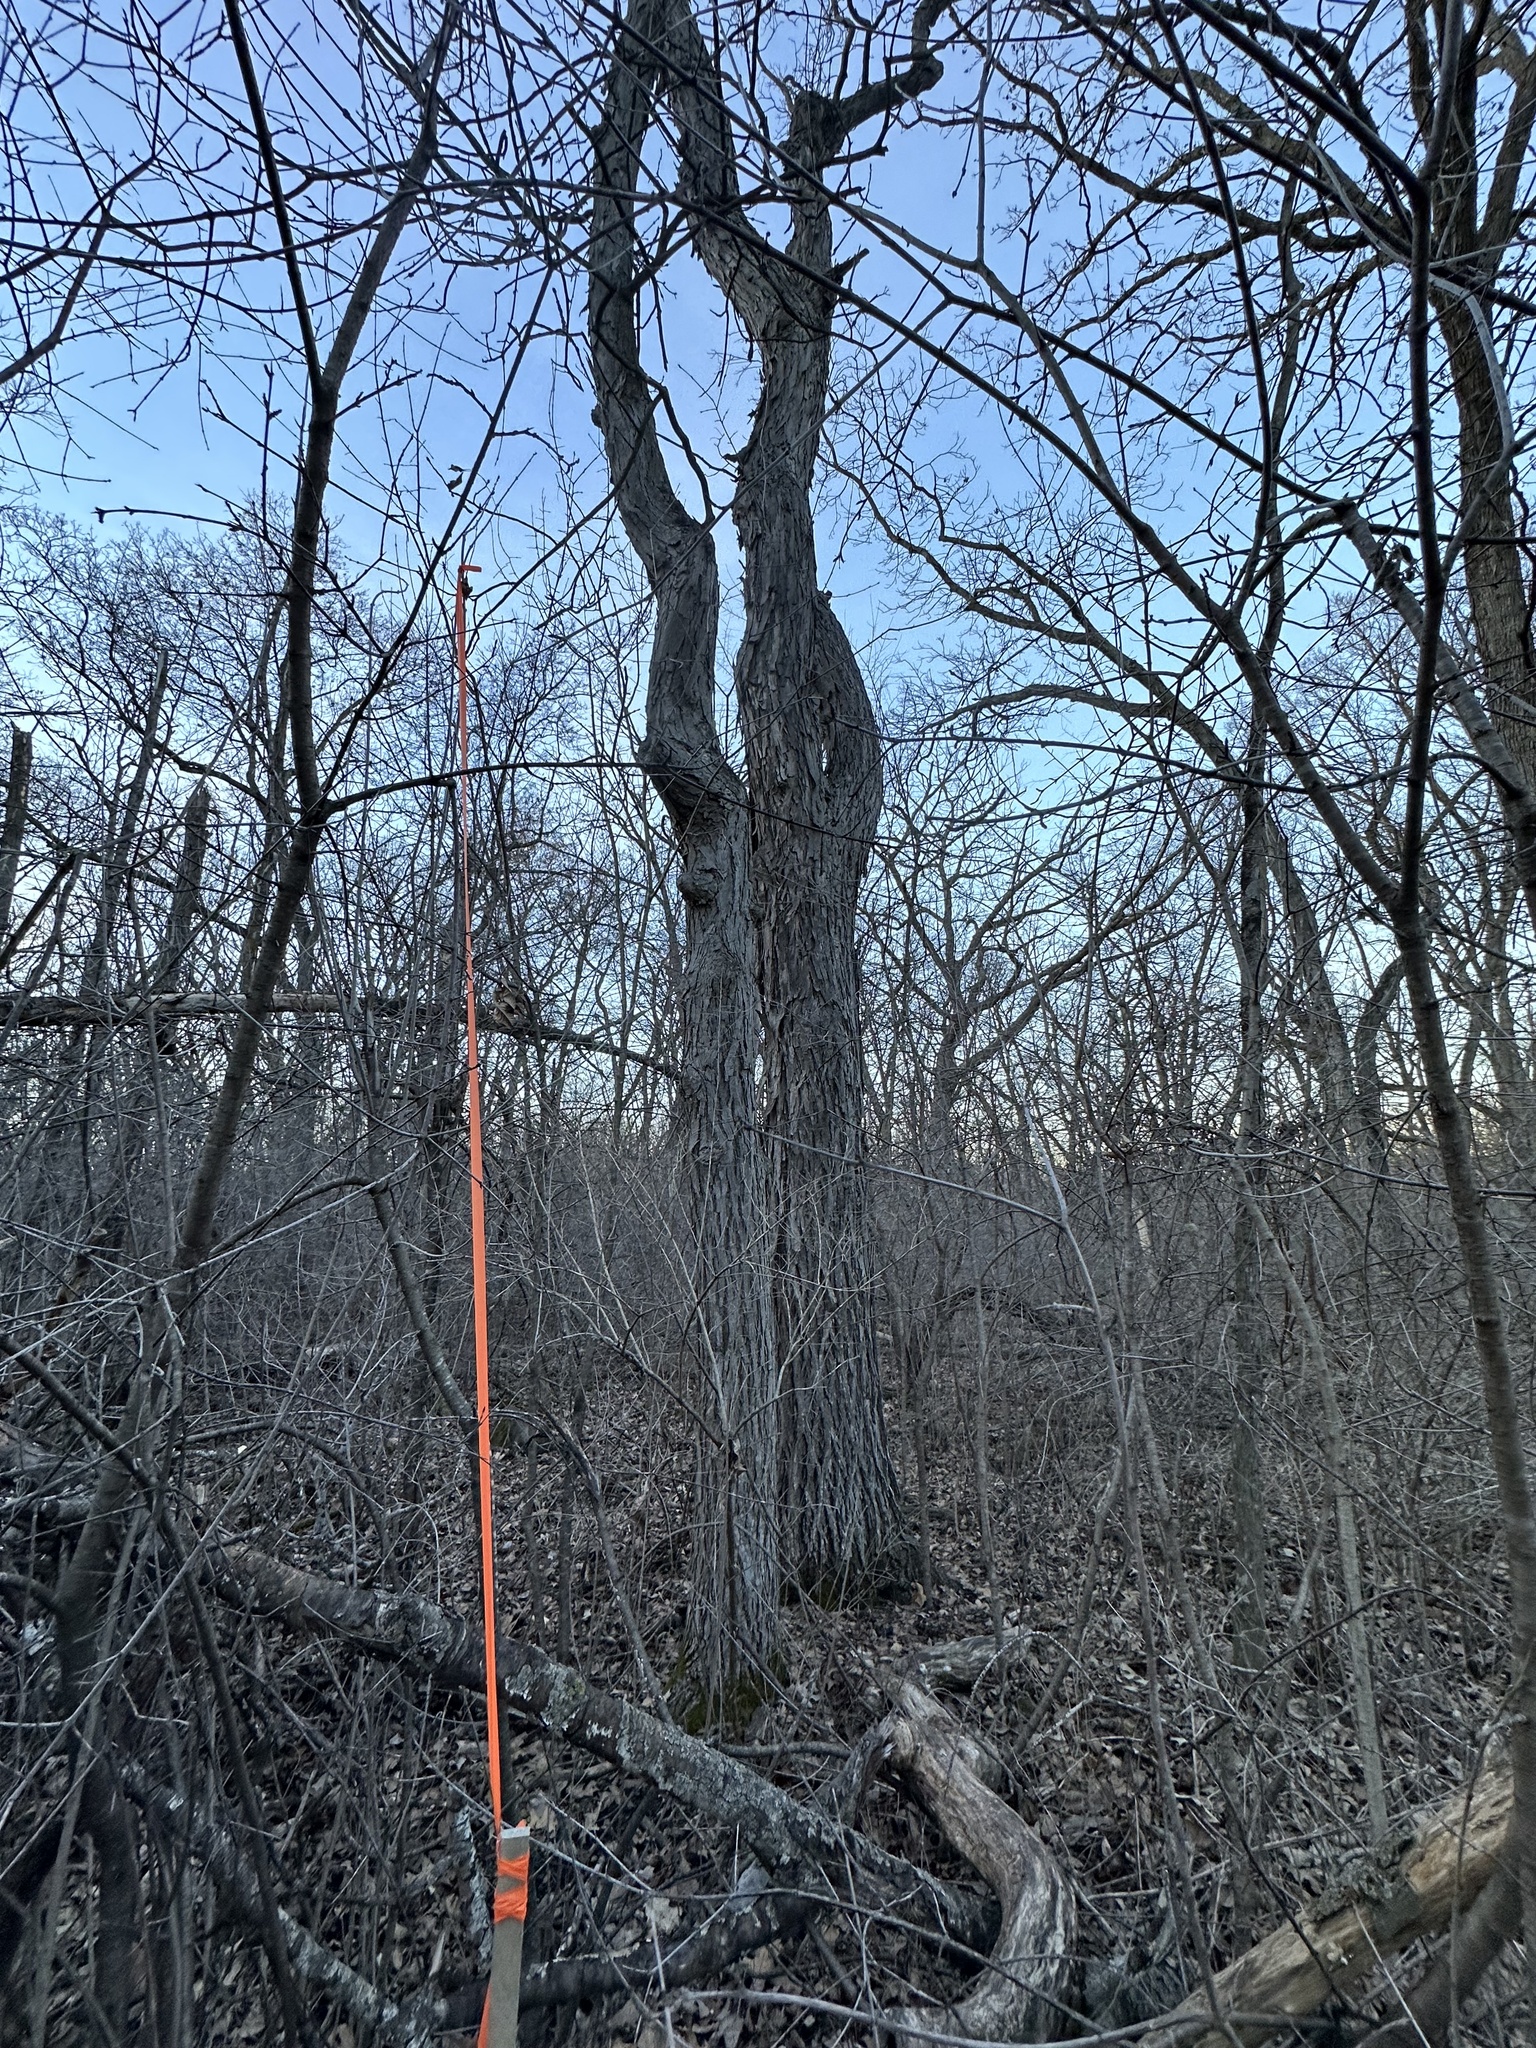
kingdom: Plantae
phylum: Tracheophyta
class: Magnoliopsida
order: Fagales
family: Juglandaceae
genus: Carya
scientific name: Carya ovata
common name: Shagbark hickory
